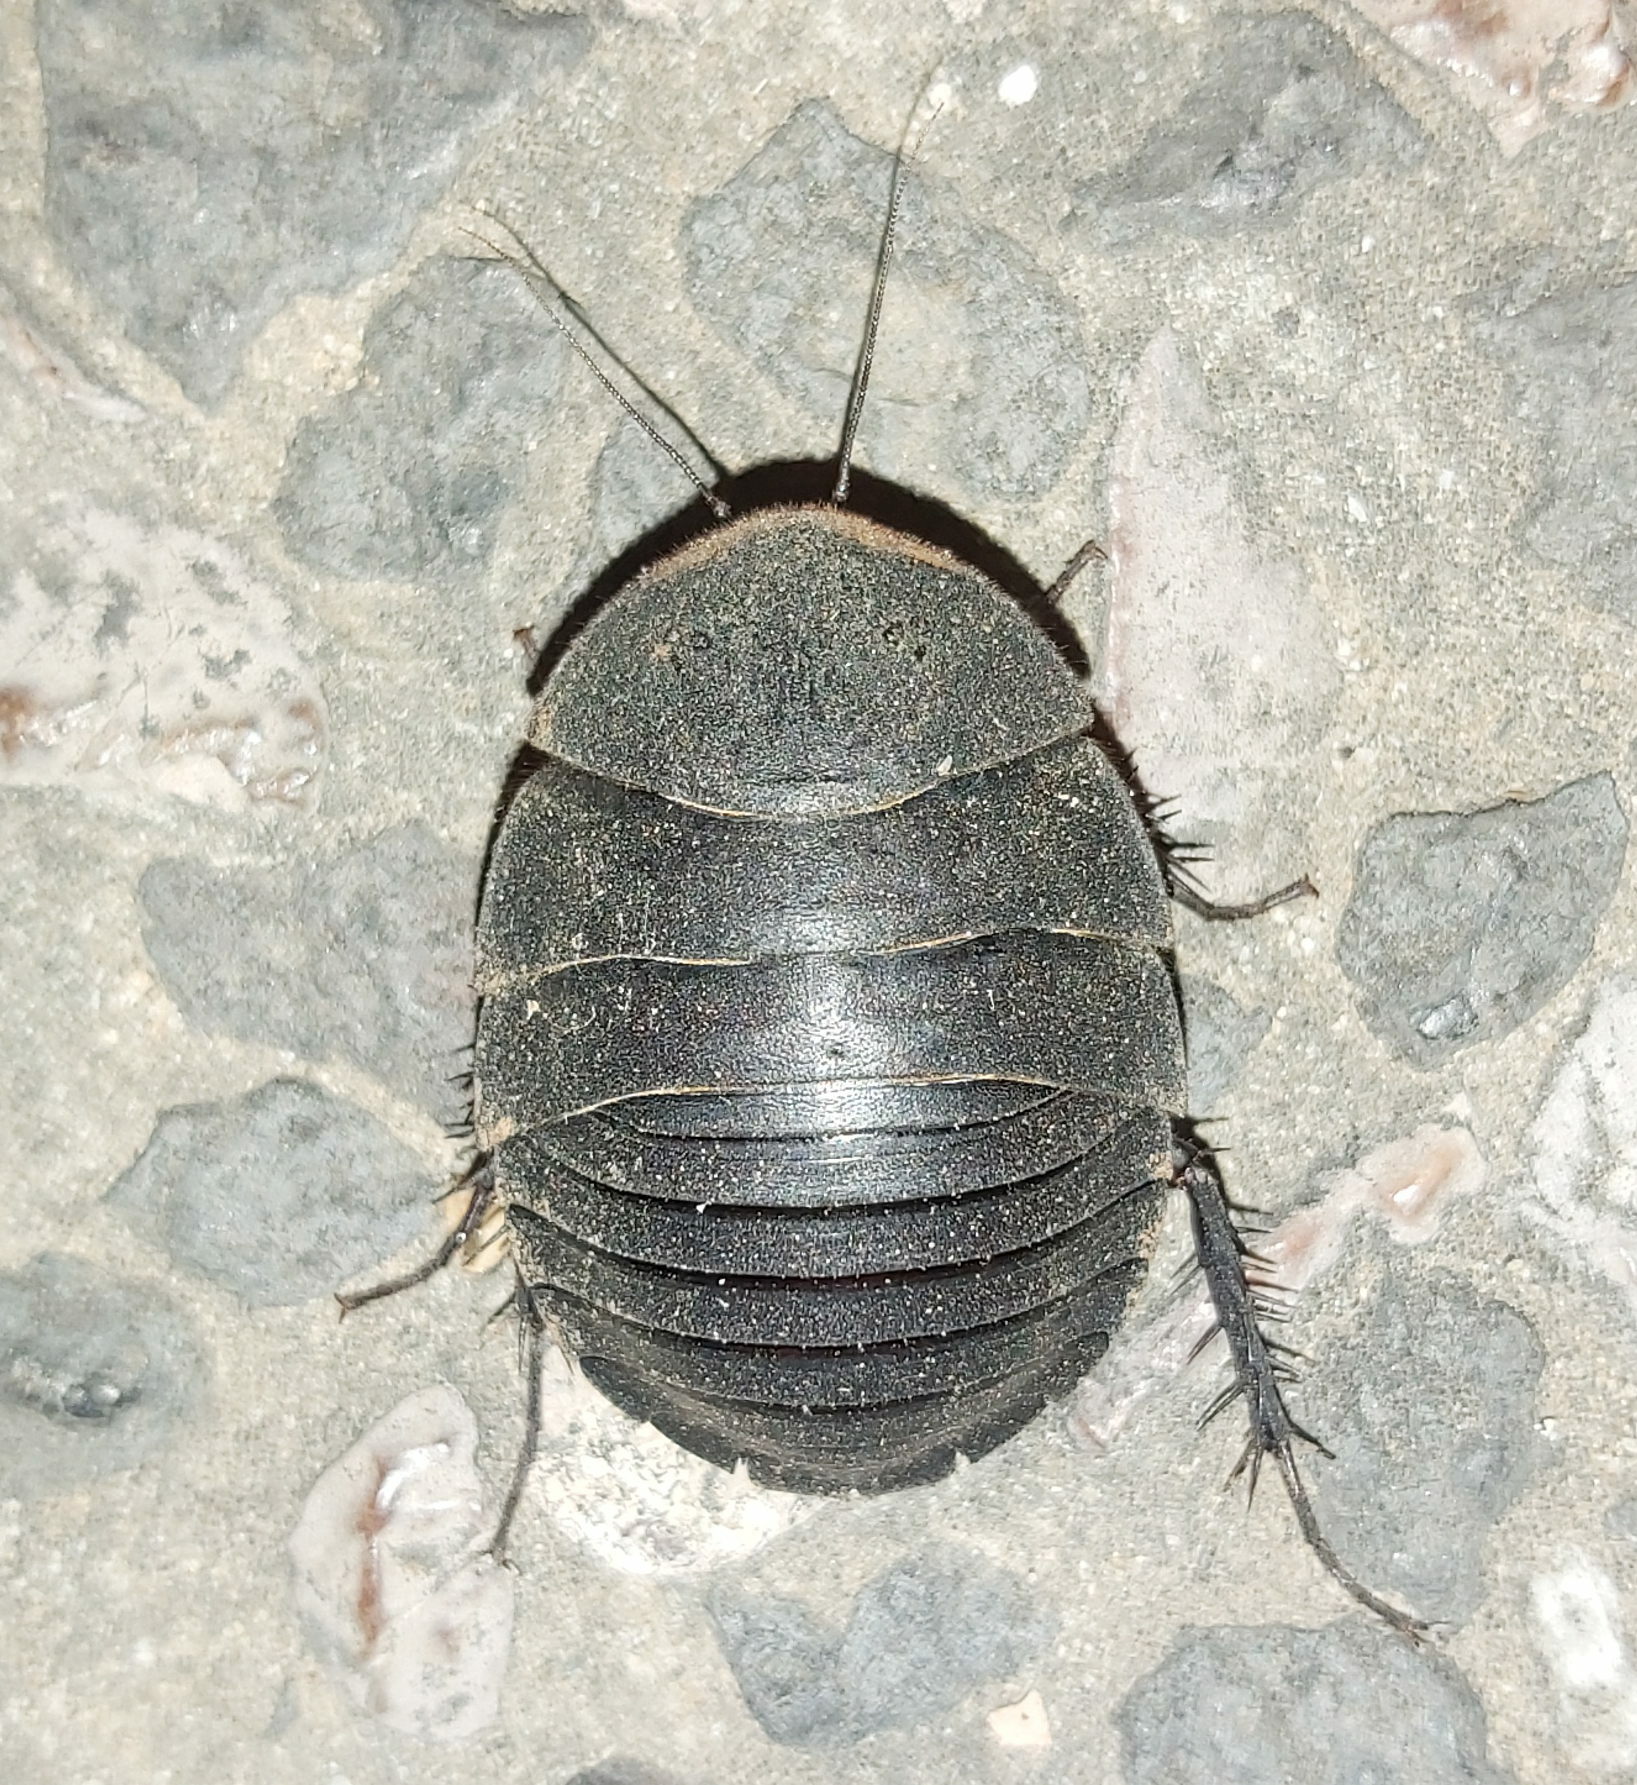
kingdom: Animalia
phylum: Arthropoda
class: Insecta
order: Blattodea
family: Corydiidae
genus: Polyphaga
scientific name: Polyphaga aegyptiaca
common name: Egyptian cockroach
